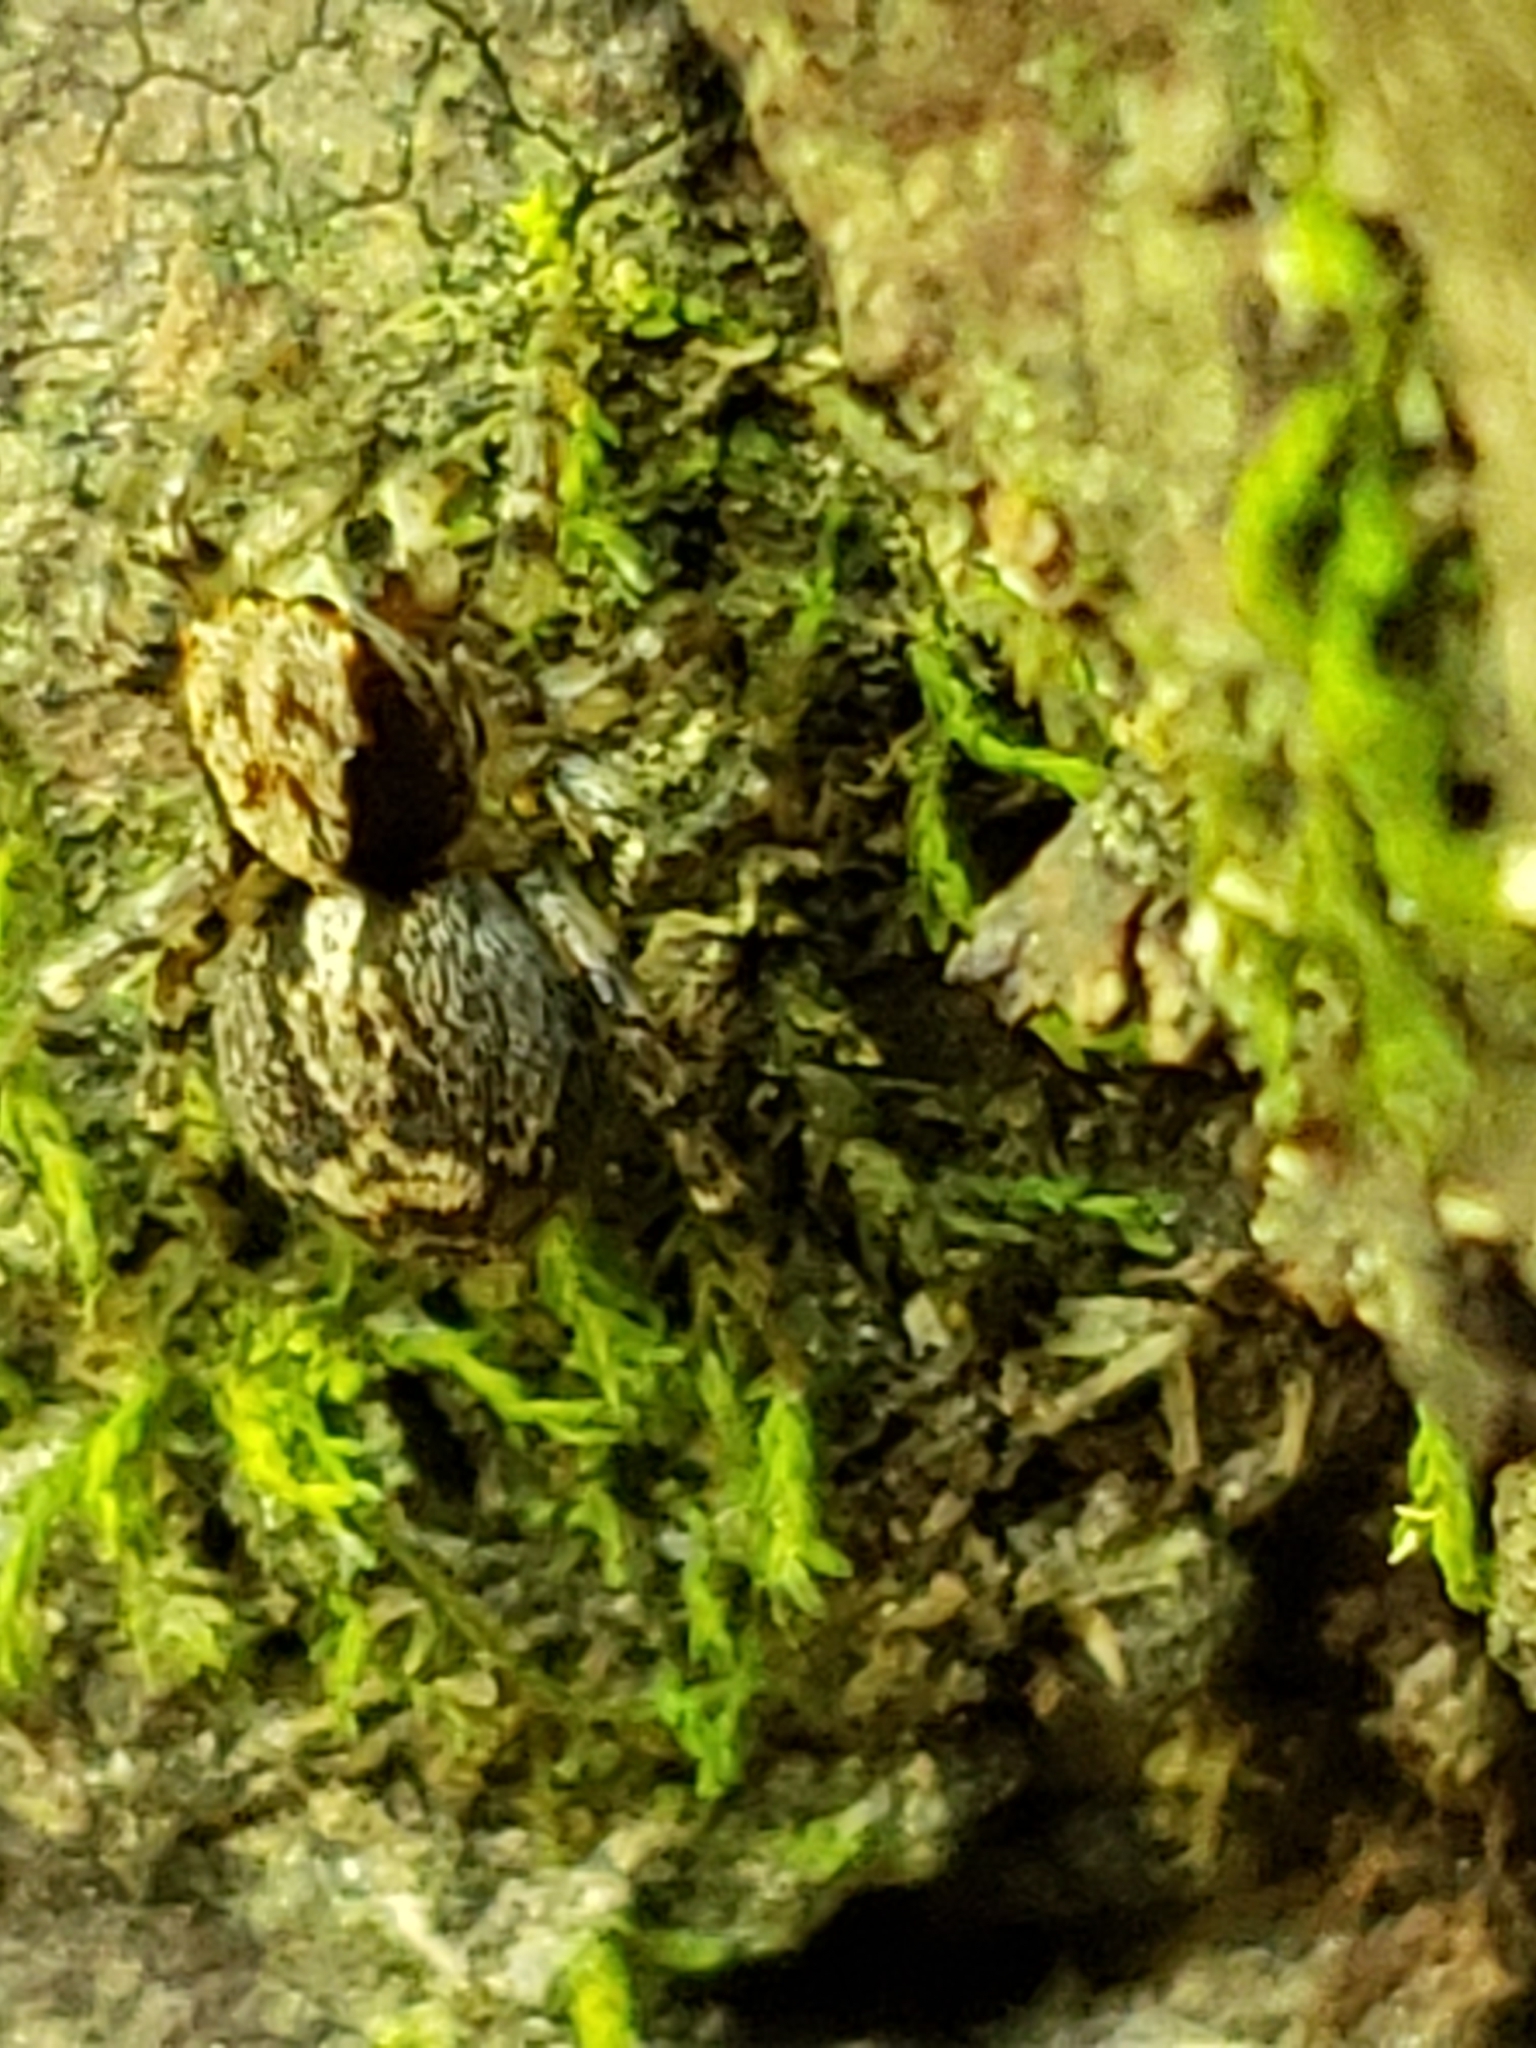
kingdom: Animalia
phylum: Arthropoda
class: Arachnida
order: Araneae
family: Salticidae
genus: Naphrys
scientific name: Naphrys pulex
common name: Flea jumping spider
